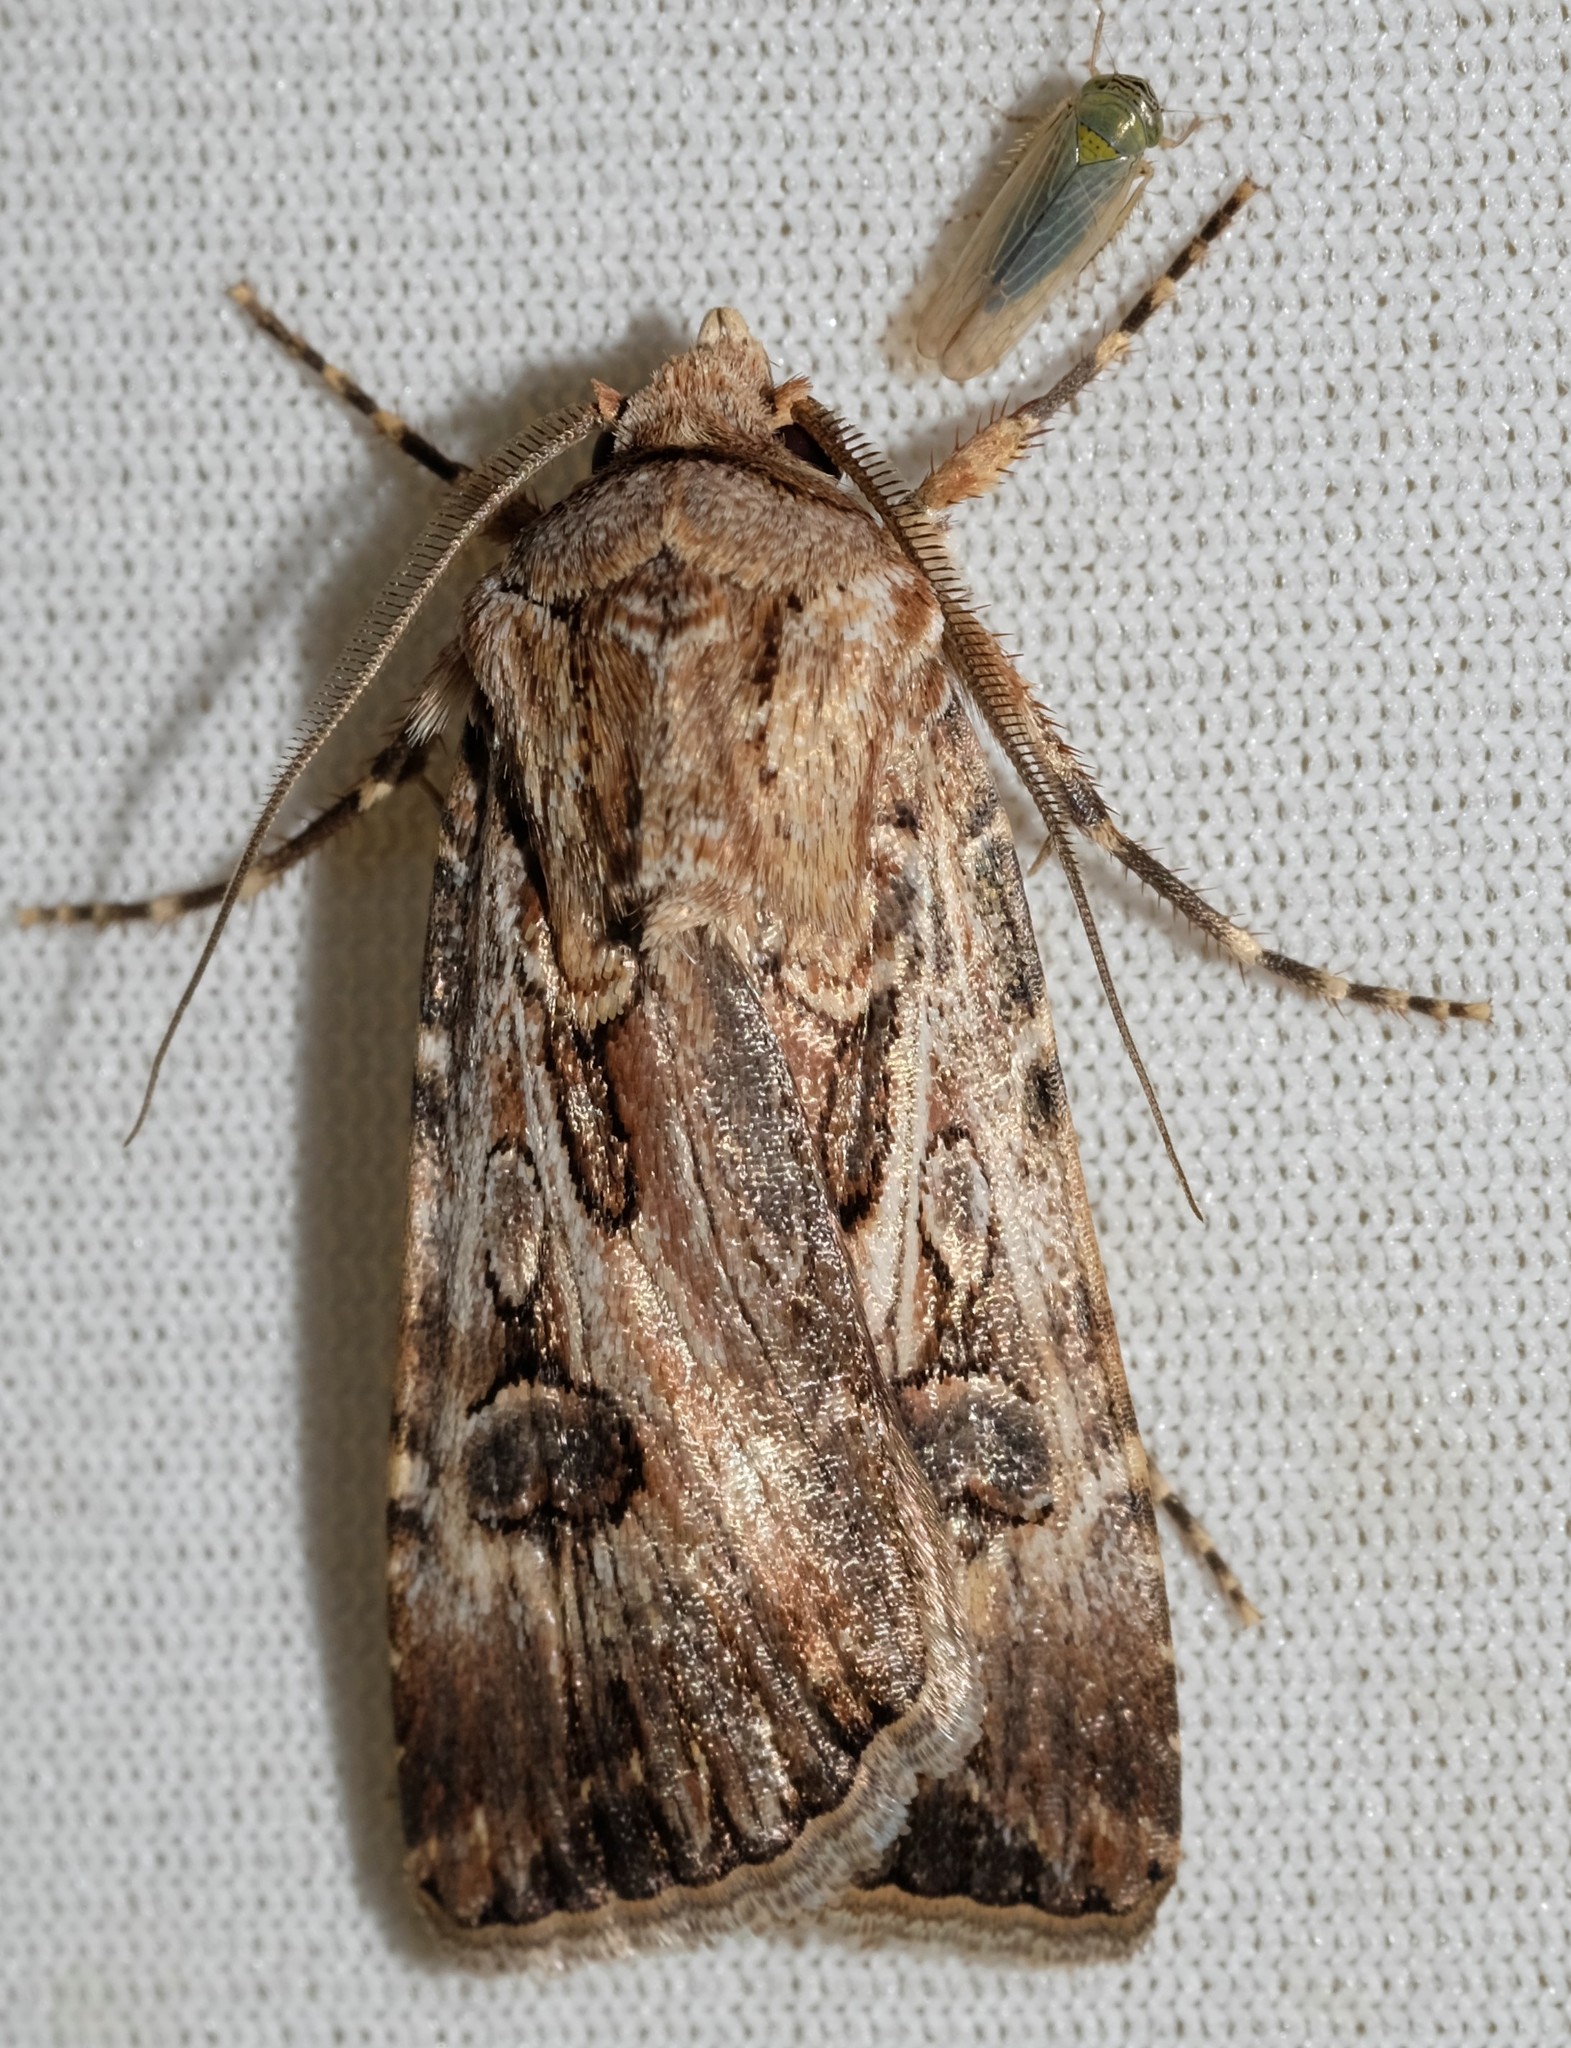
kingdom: Animalia
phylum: Arthropoda
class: Insecta
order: Lepidoptera
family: Noctuidae
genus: Agrotis
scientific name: Agrotis munda
